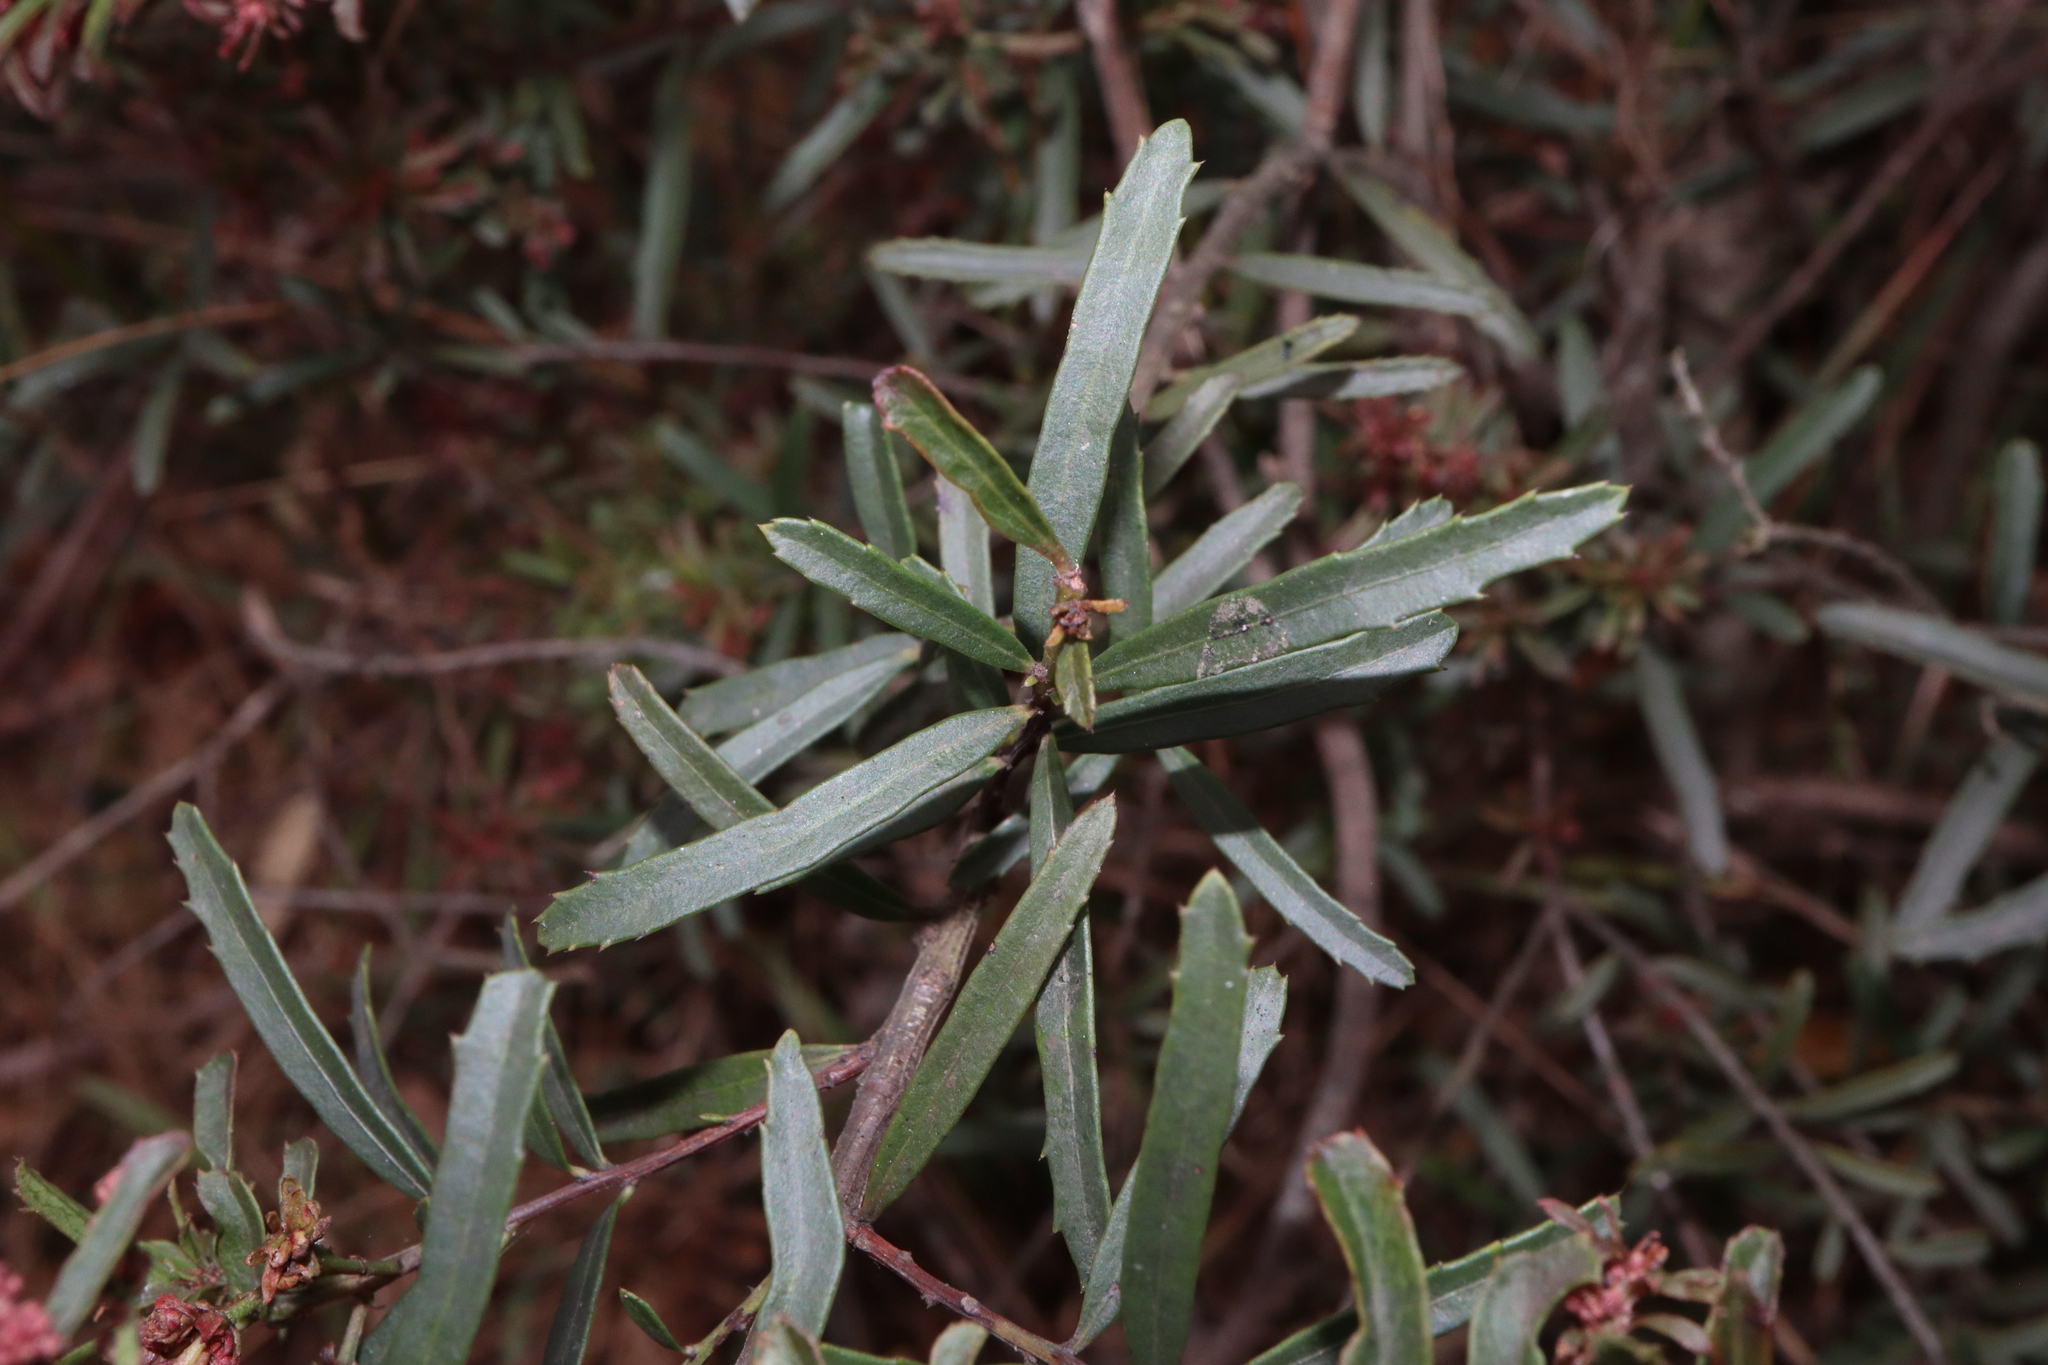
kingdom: Plantae
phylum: Tracheophyta
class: Magnoliopsida
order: Celastrales
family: Celastraceae
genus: Denhamia
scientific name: Denhamia silvestris
